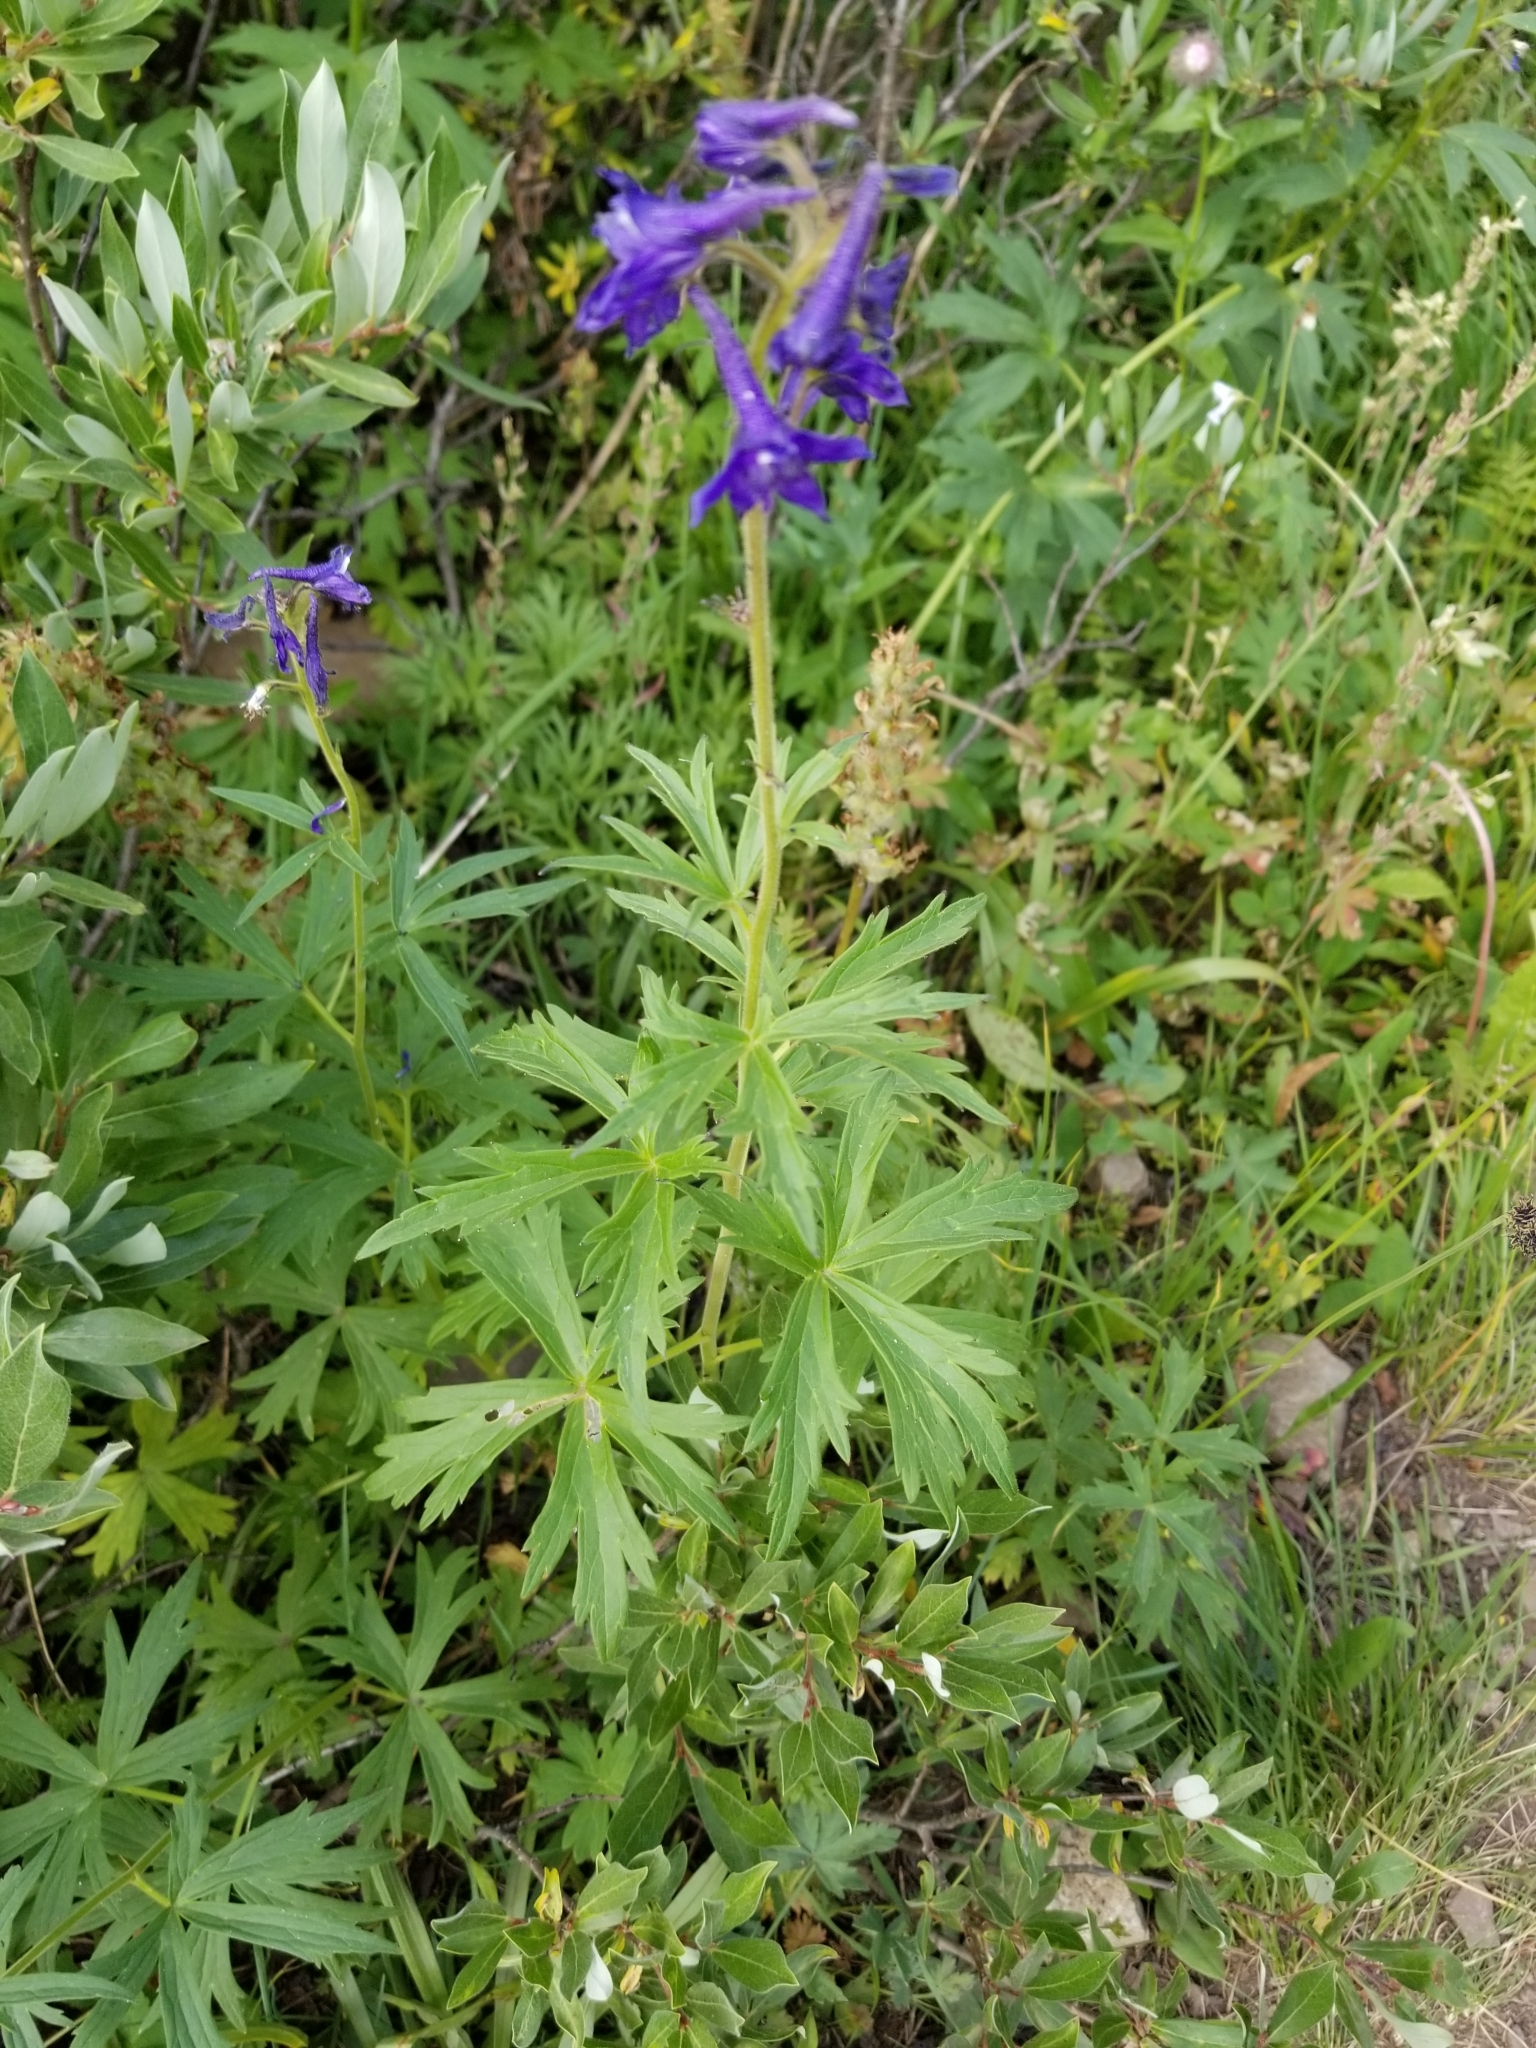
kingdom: Plantae
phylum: Tracheophyta
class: Magnoliopsida
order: Ranunculales
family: Ranunculaceae
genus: Delphinium
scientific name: Delphinium barbeyi
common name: Subalpine larkspur
